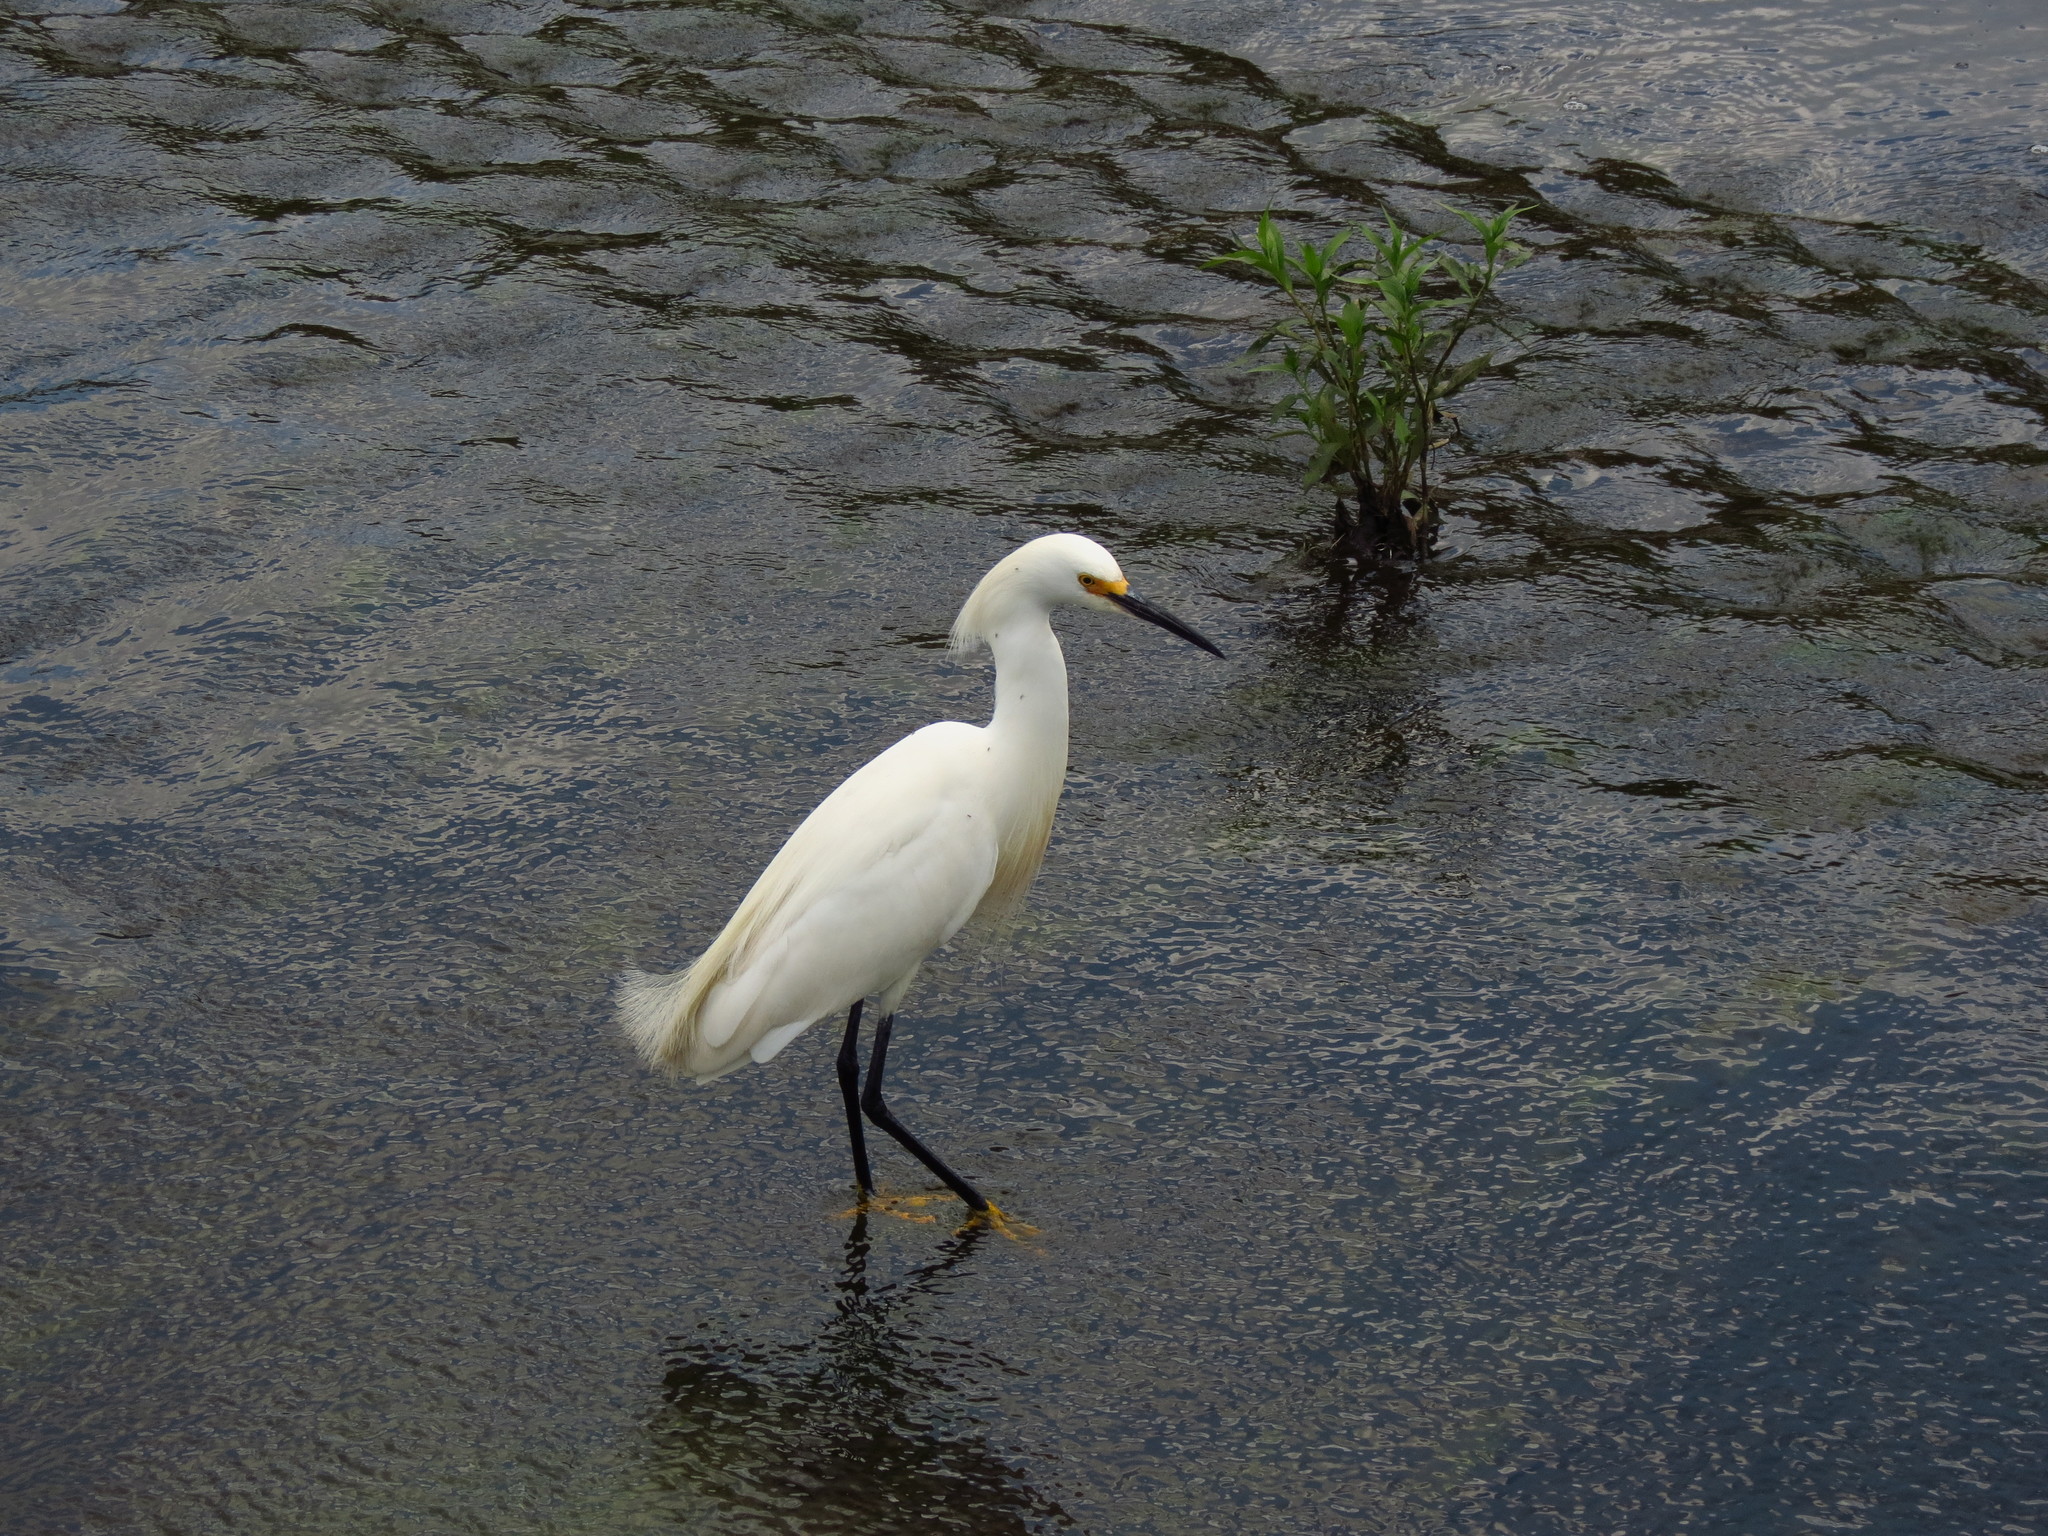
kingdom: Animalia
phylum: Chordata
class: Aves
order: Pelecaniformes
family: Ardeidae
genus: Egretta
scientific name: Egretta thula
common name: Snowy egret
